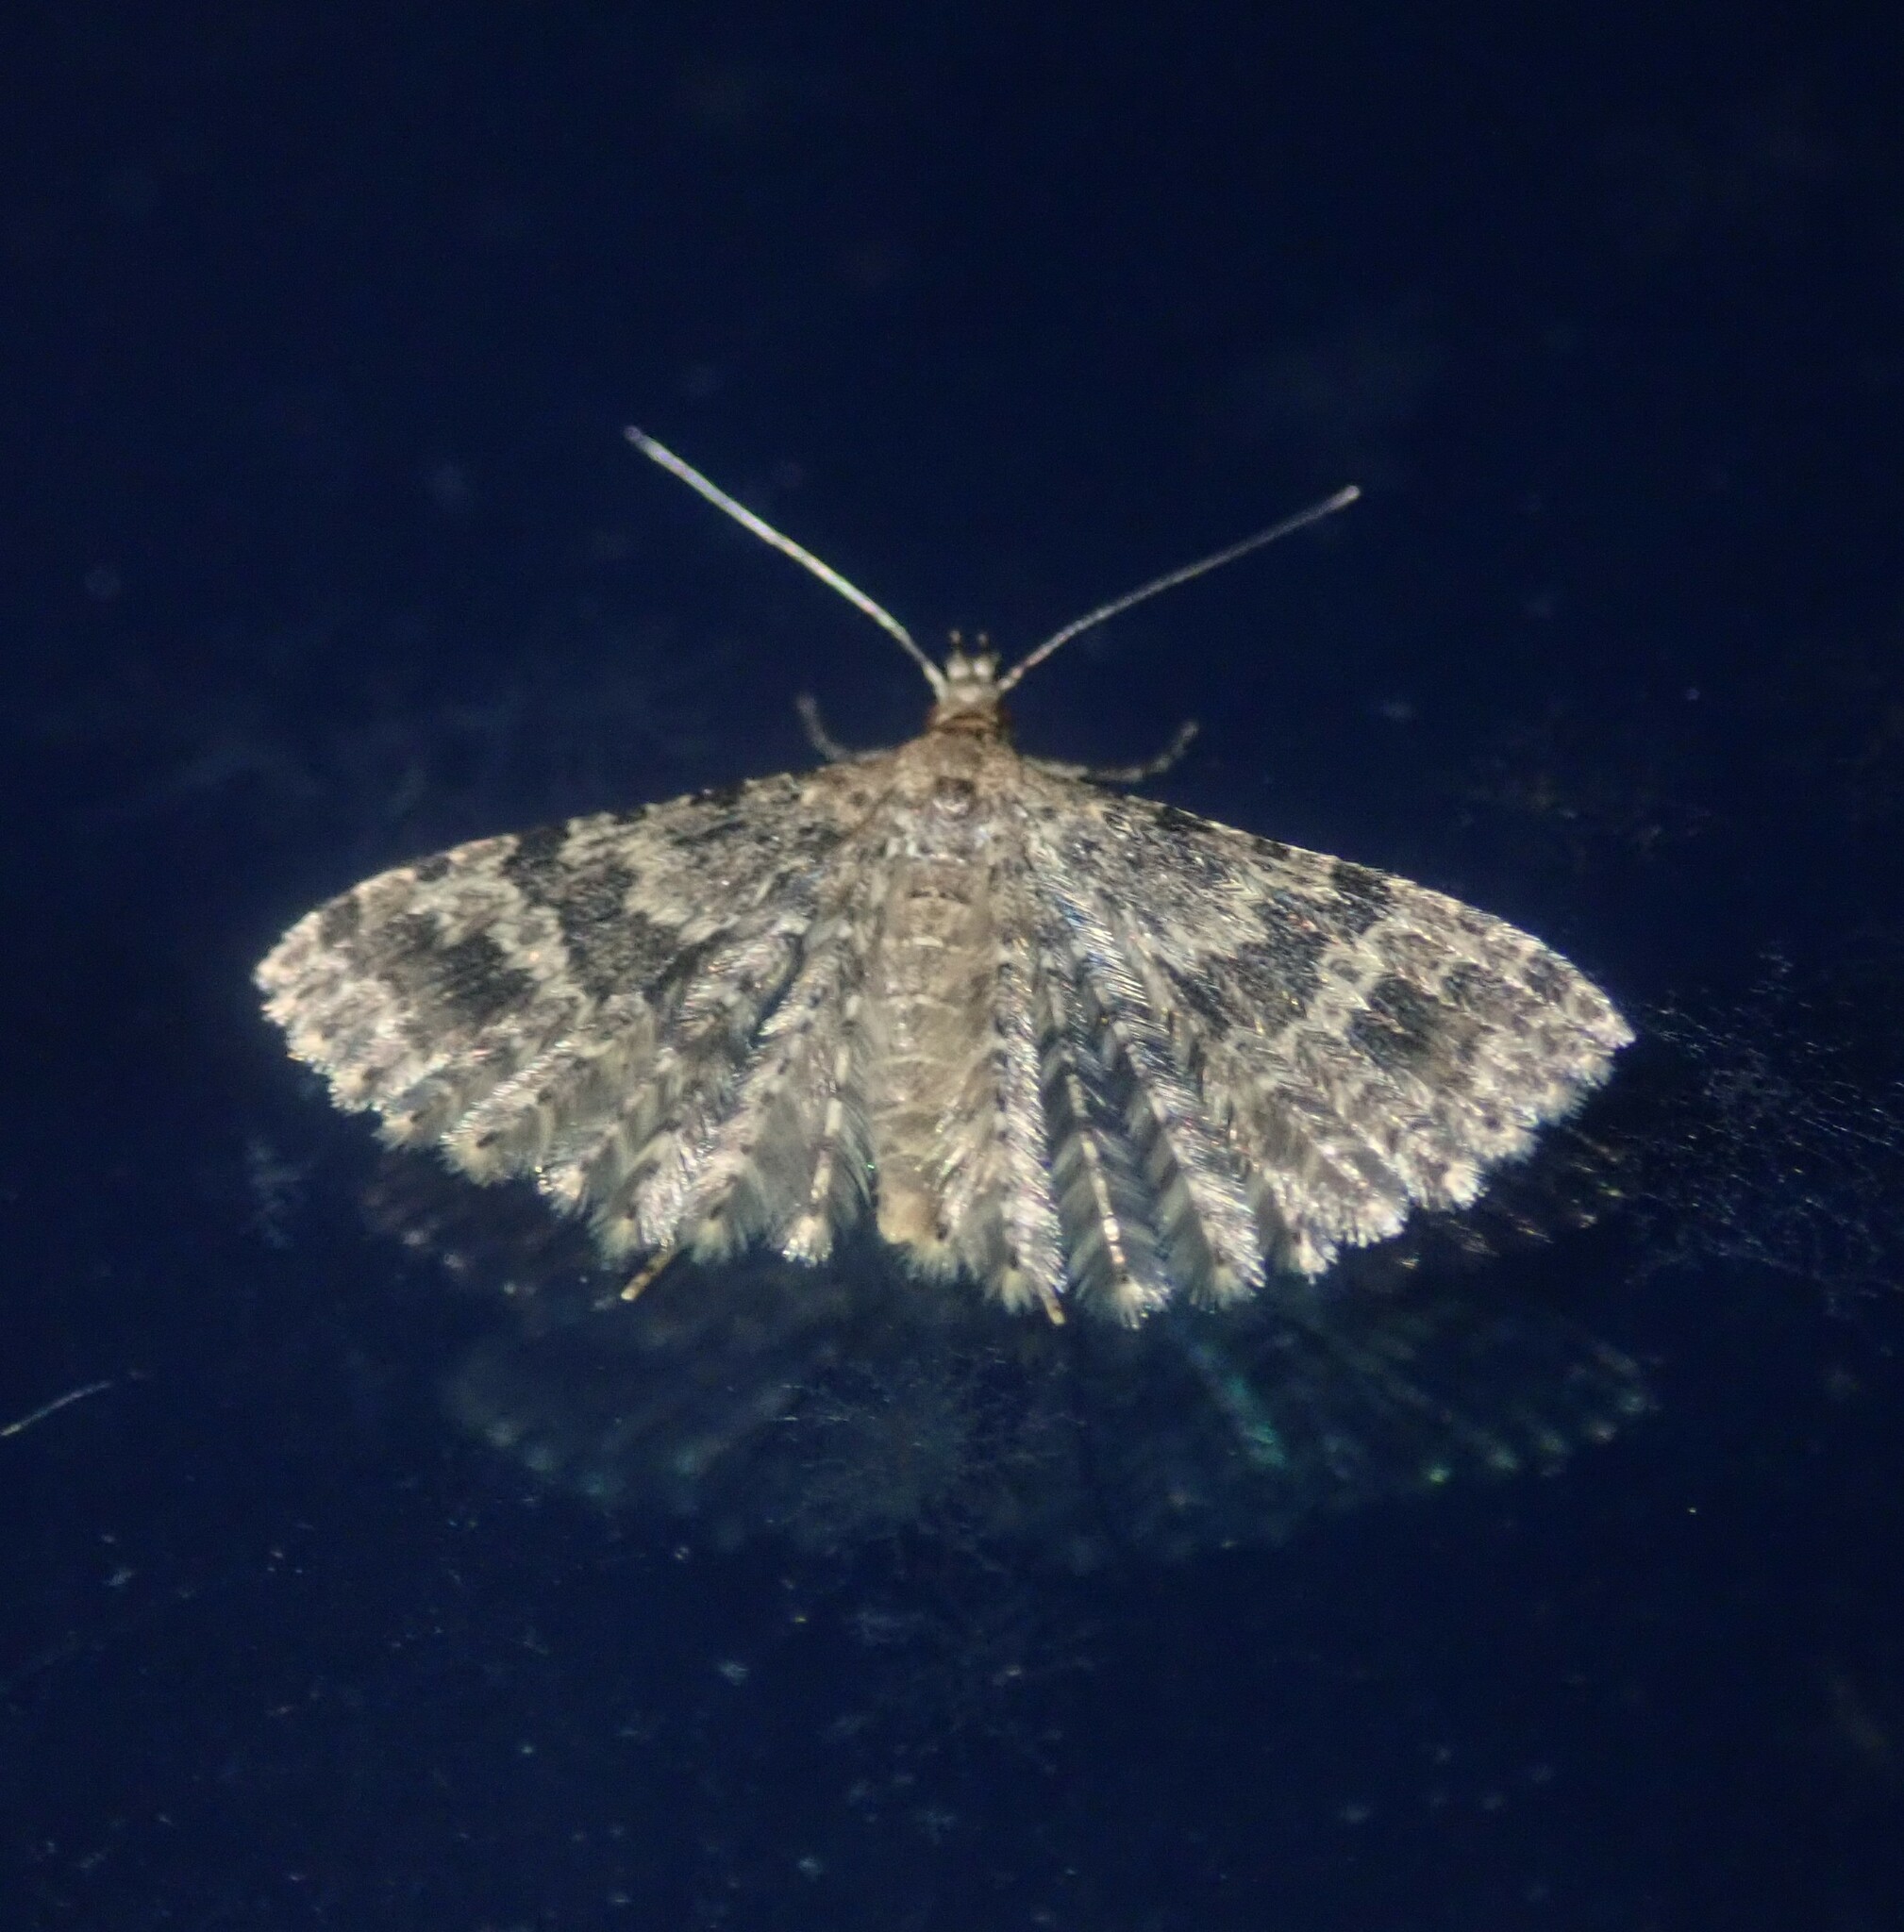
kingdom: Animalia
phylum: Arthropoda
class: Insecta
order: Lepidoptera
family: Alucitidae
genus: Alucita
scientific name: Alucita hexadactyla
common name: Twenty-plume moth
